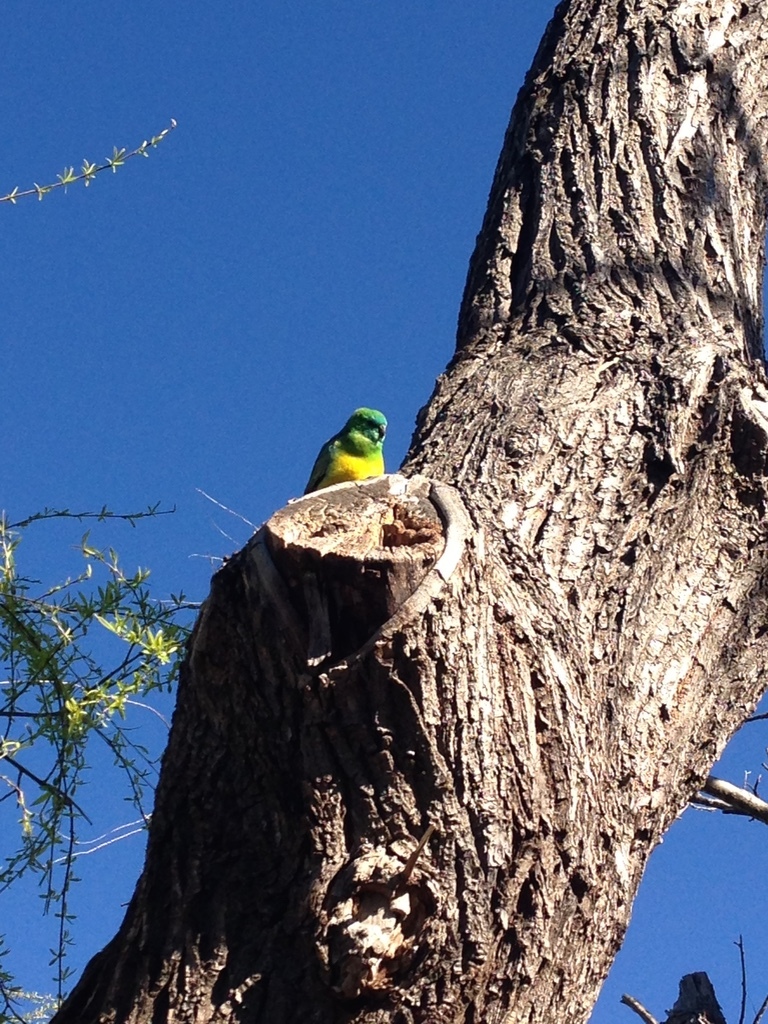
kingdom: Animalia
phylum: Chordata
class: Aves
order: Psittaciformes
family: Psittacidae
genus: Psephotus
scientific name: Psephotus haematonotus
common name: Red-rumped parrot
